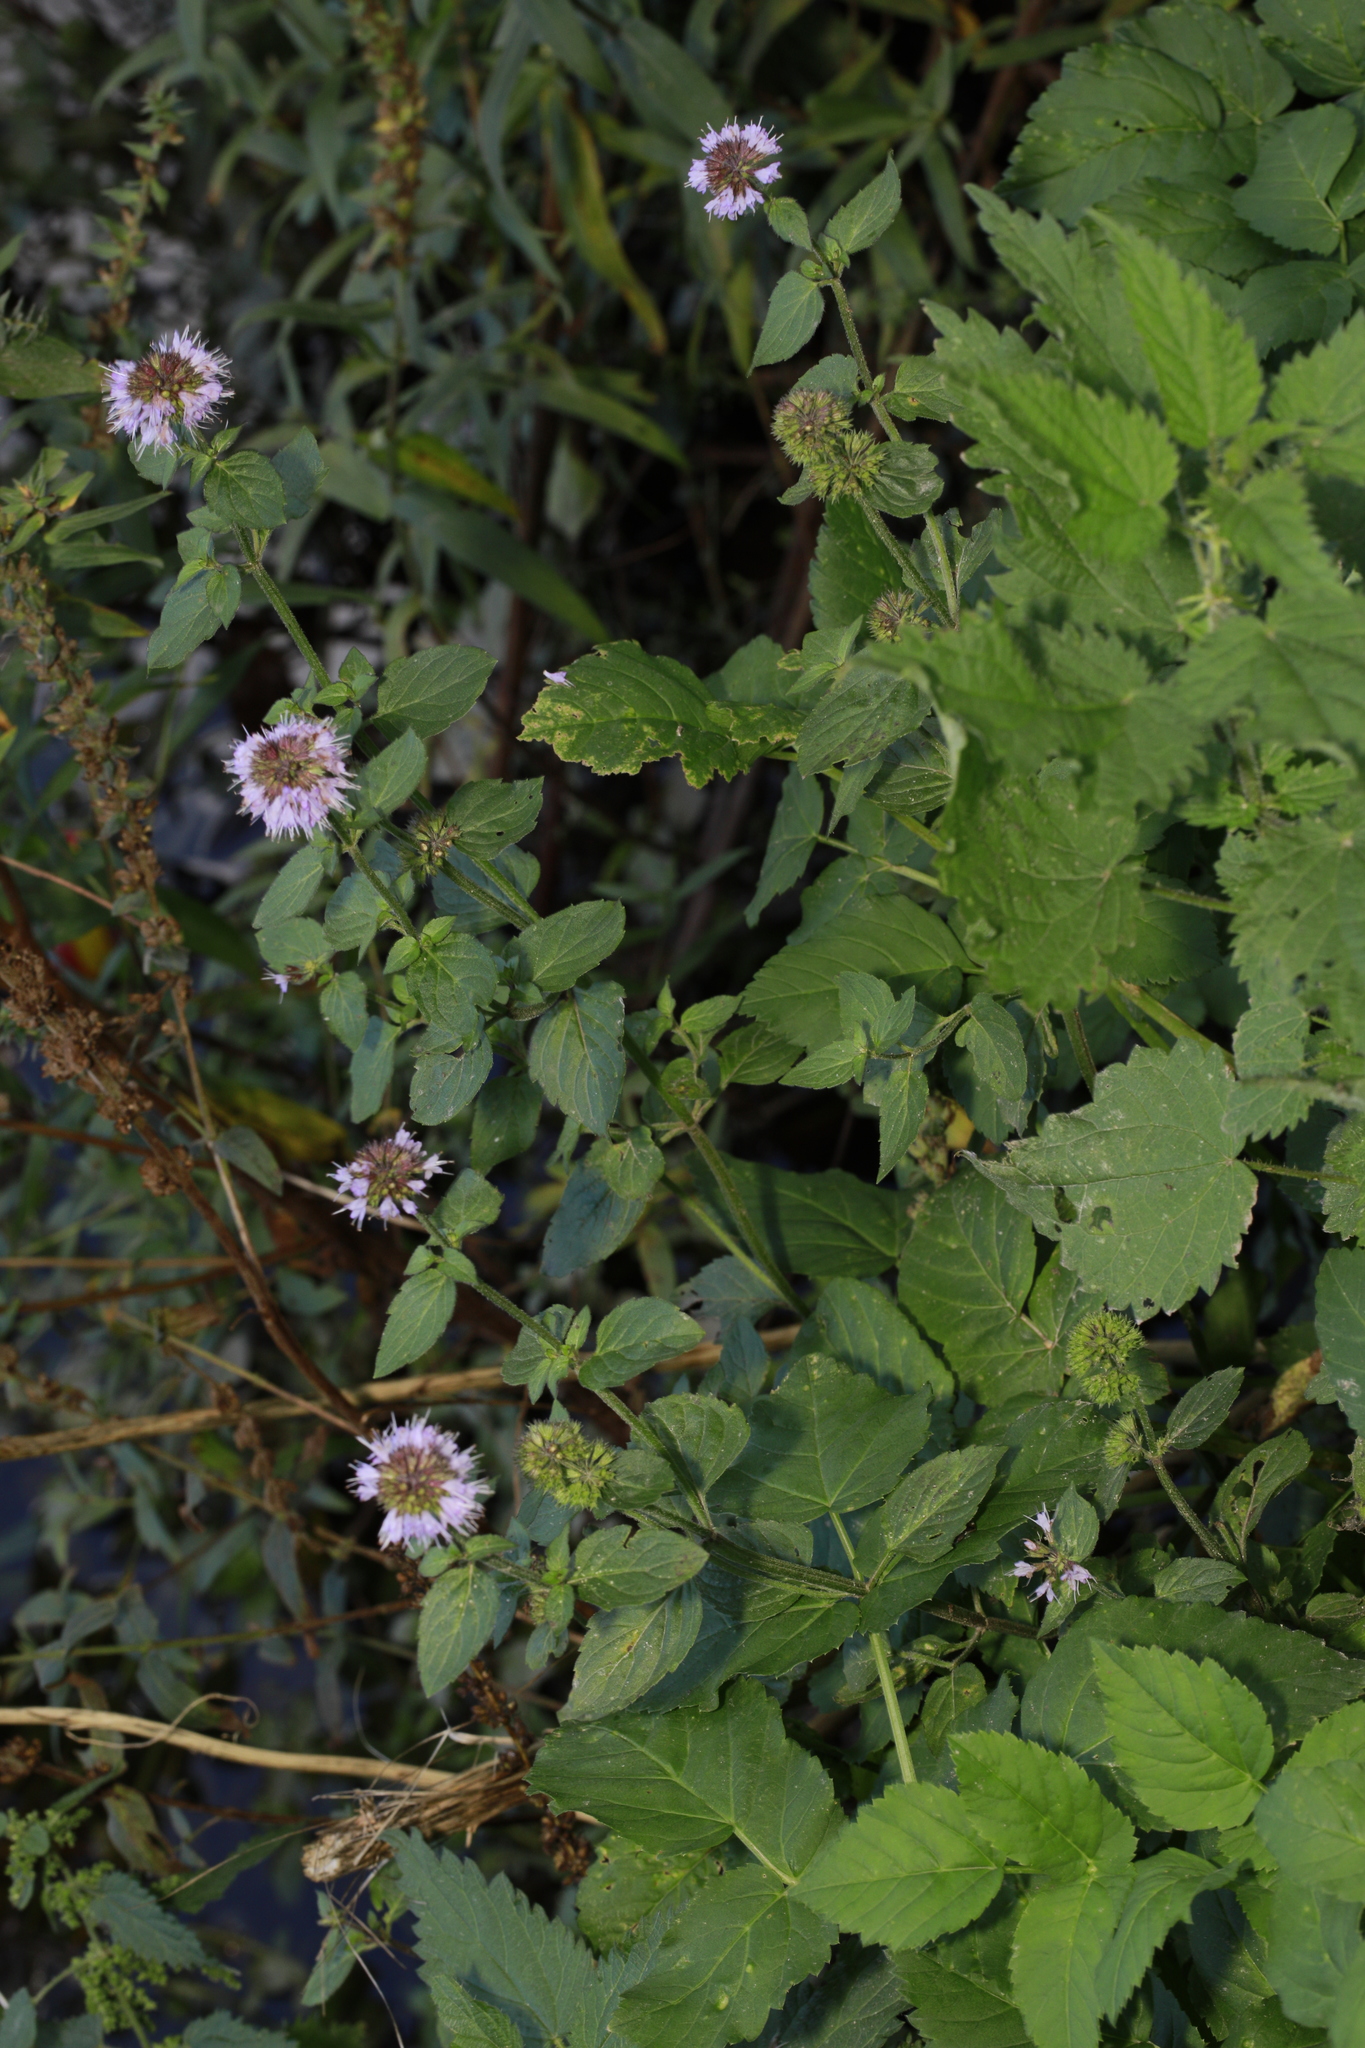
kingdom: Plantae
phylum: Tracheophyta
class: Magnoliopsida
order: Lamiales
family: Lamiaceae
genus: Mentha
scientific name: Mentha aquatica
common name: Water mint
